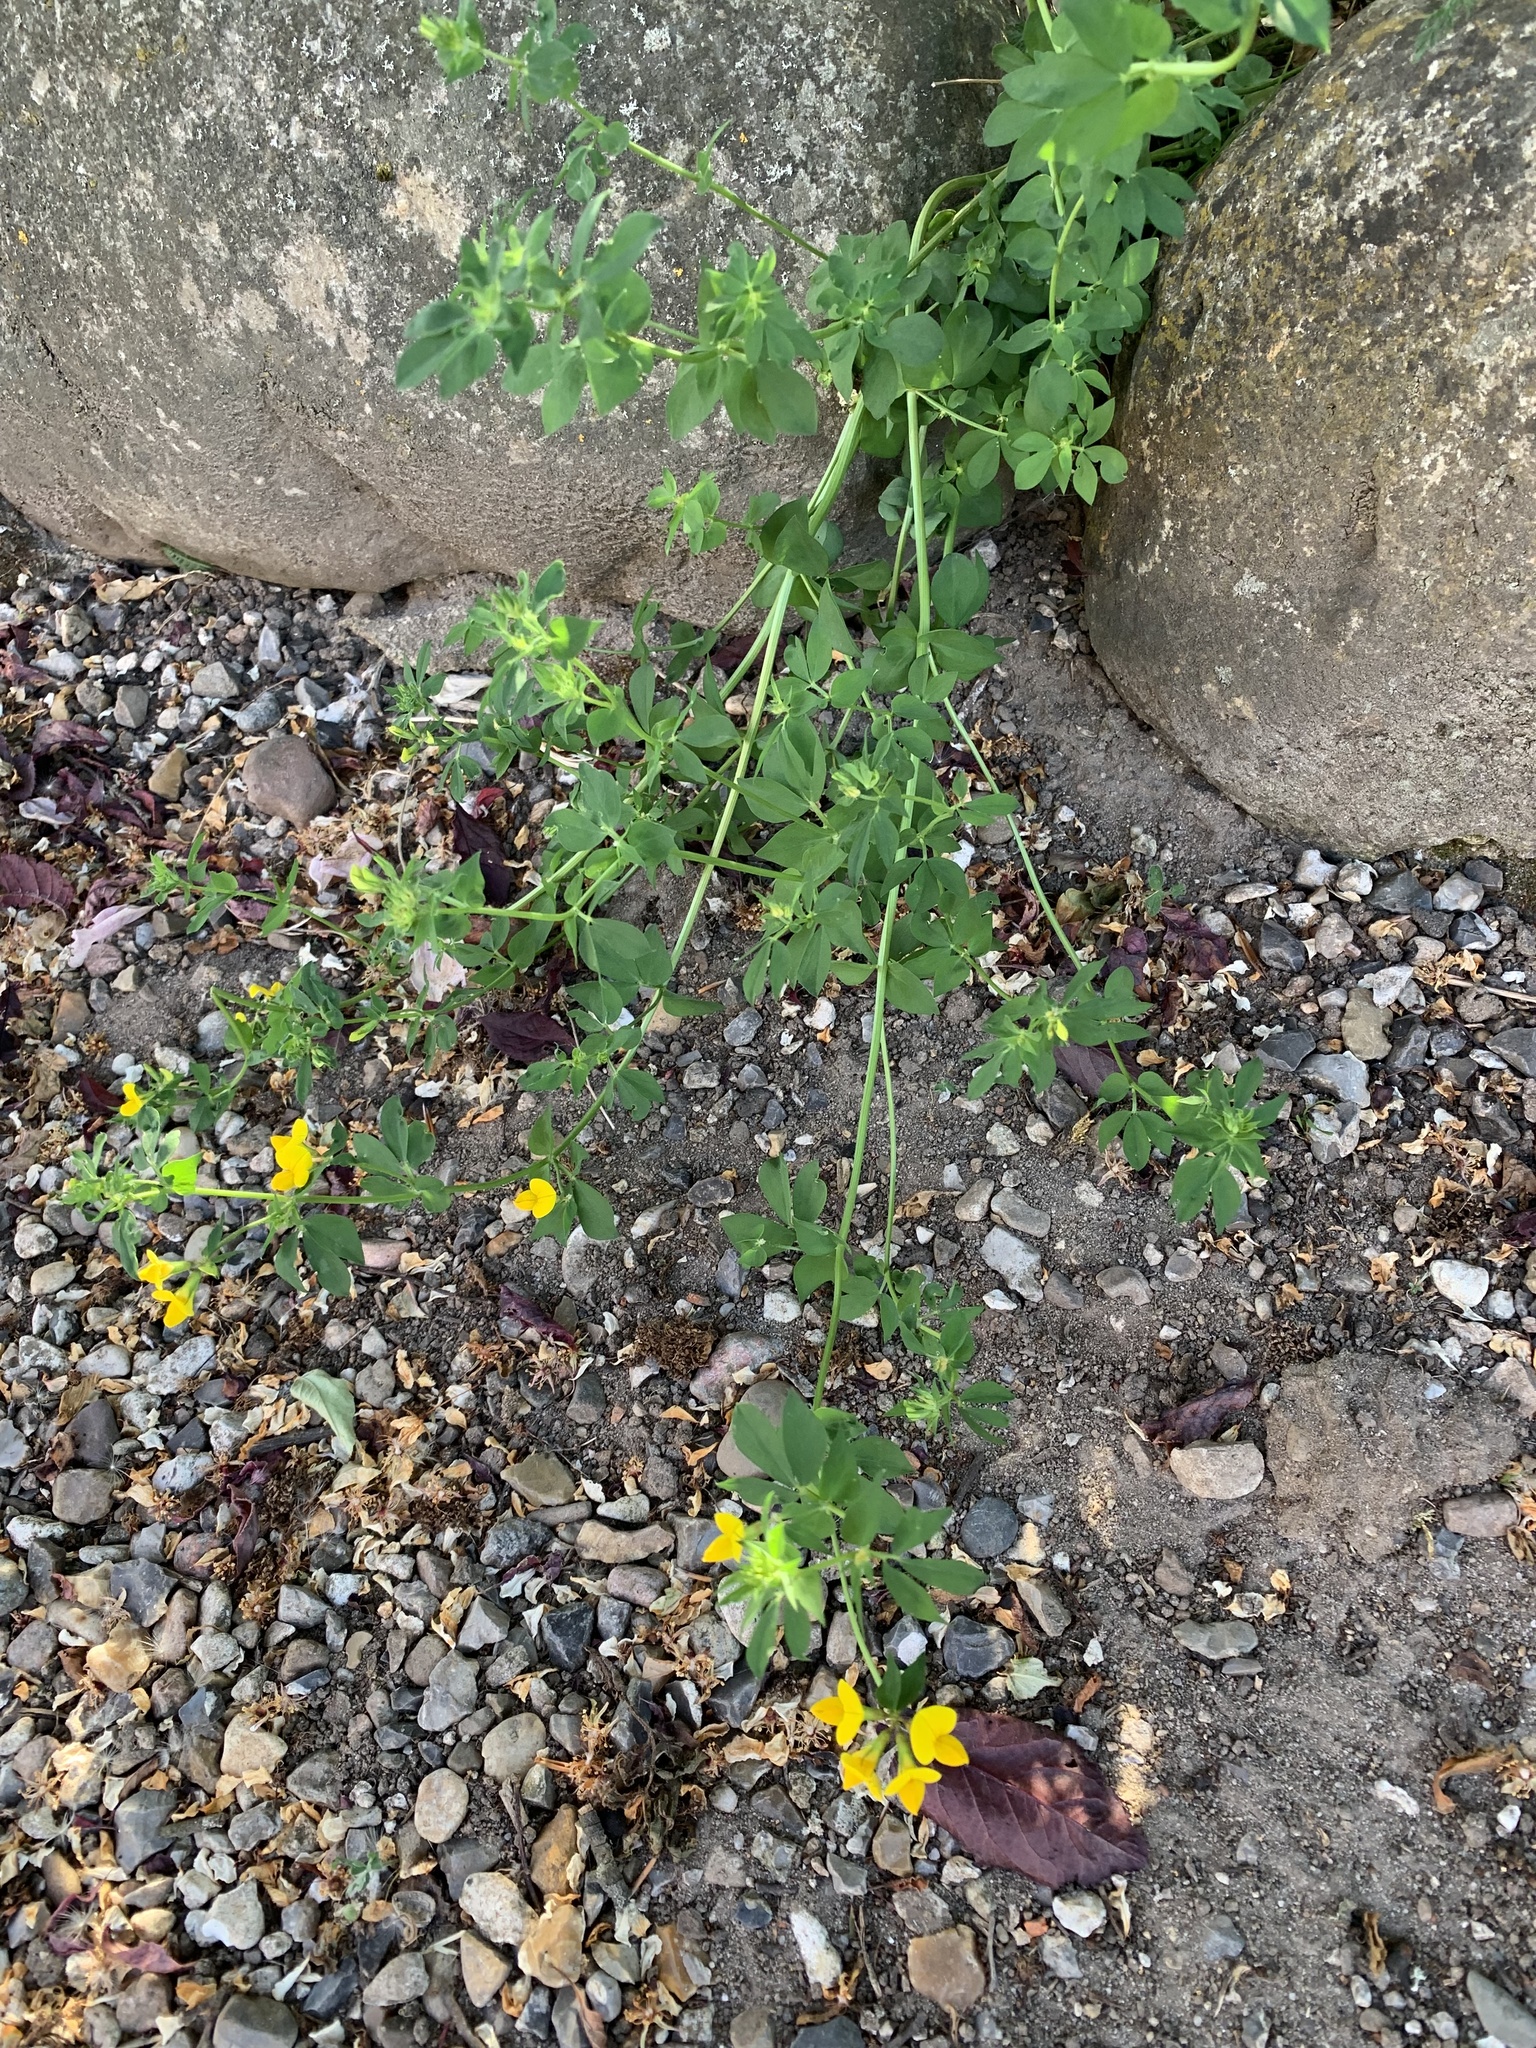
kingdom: Plantae
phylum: Tracheophyta
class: Magnoliopsida
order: Fabales
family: Fabaceae
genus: Lotus
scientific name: Lotus corniculatus
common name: Common bird's-foot-trefoil
